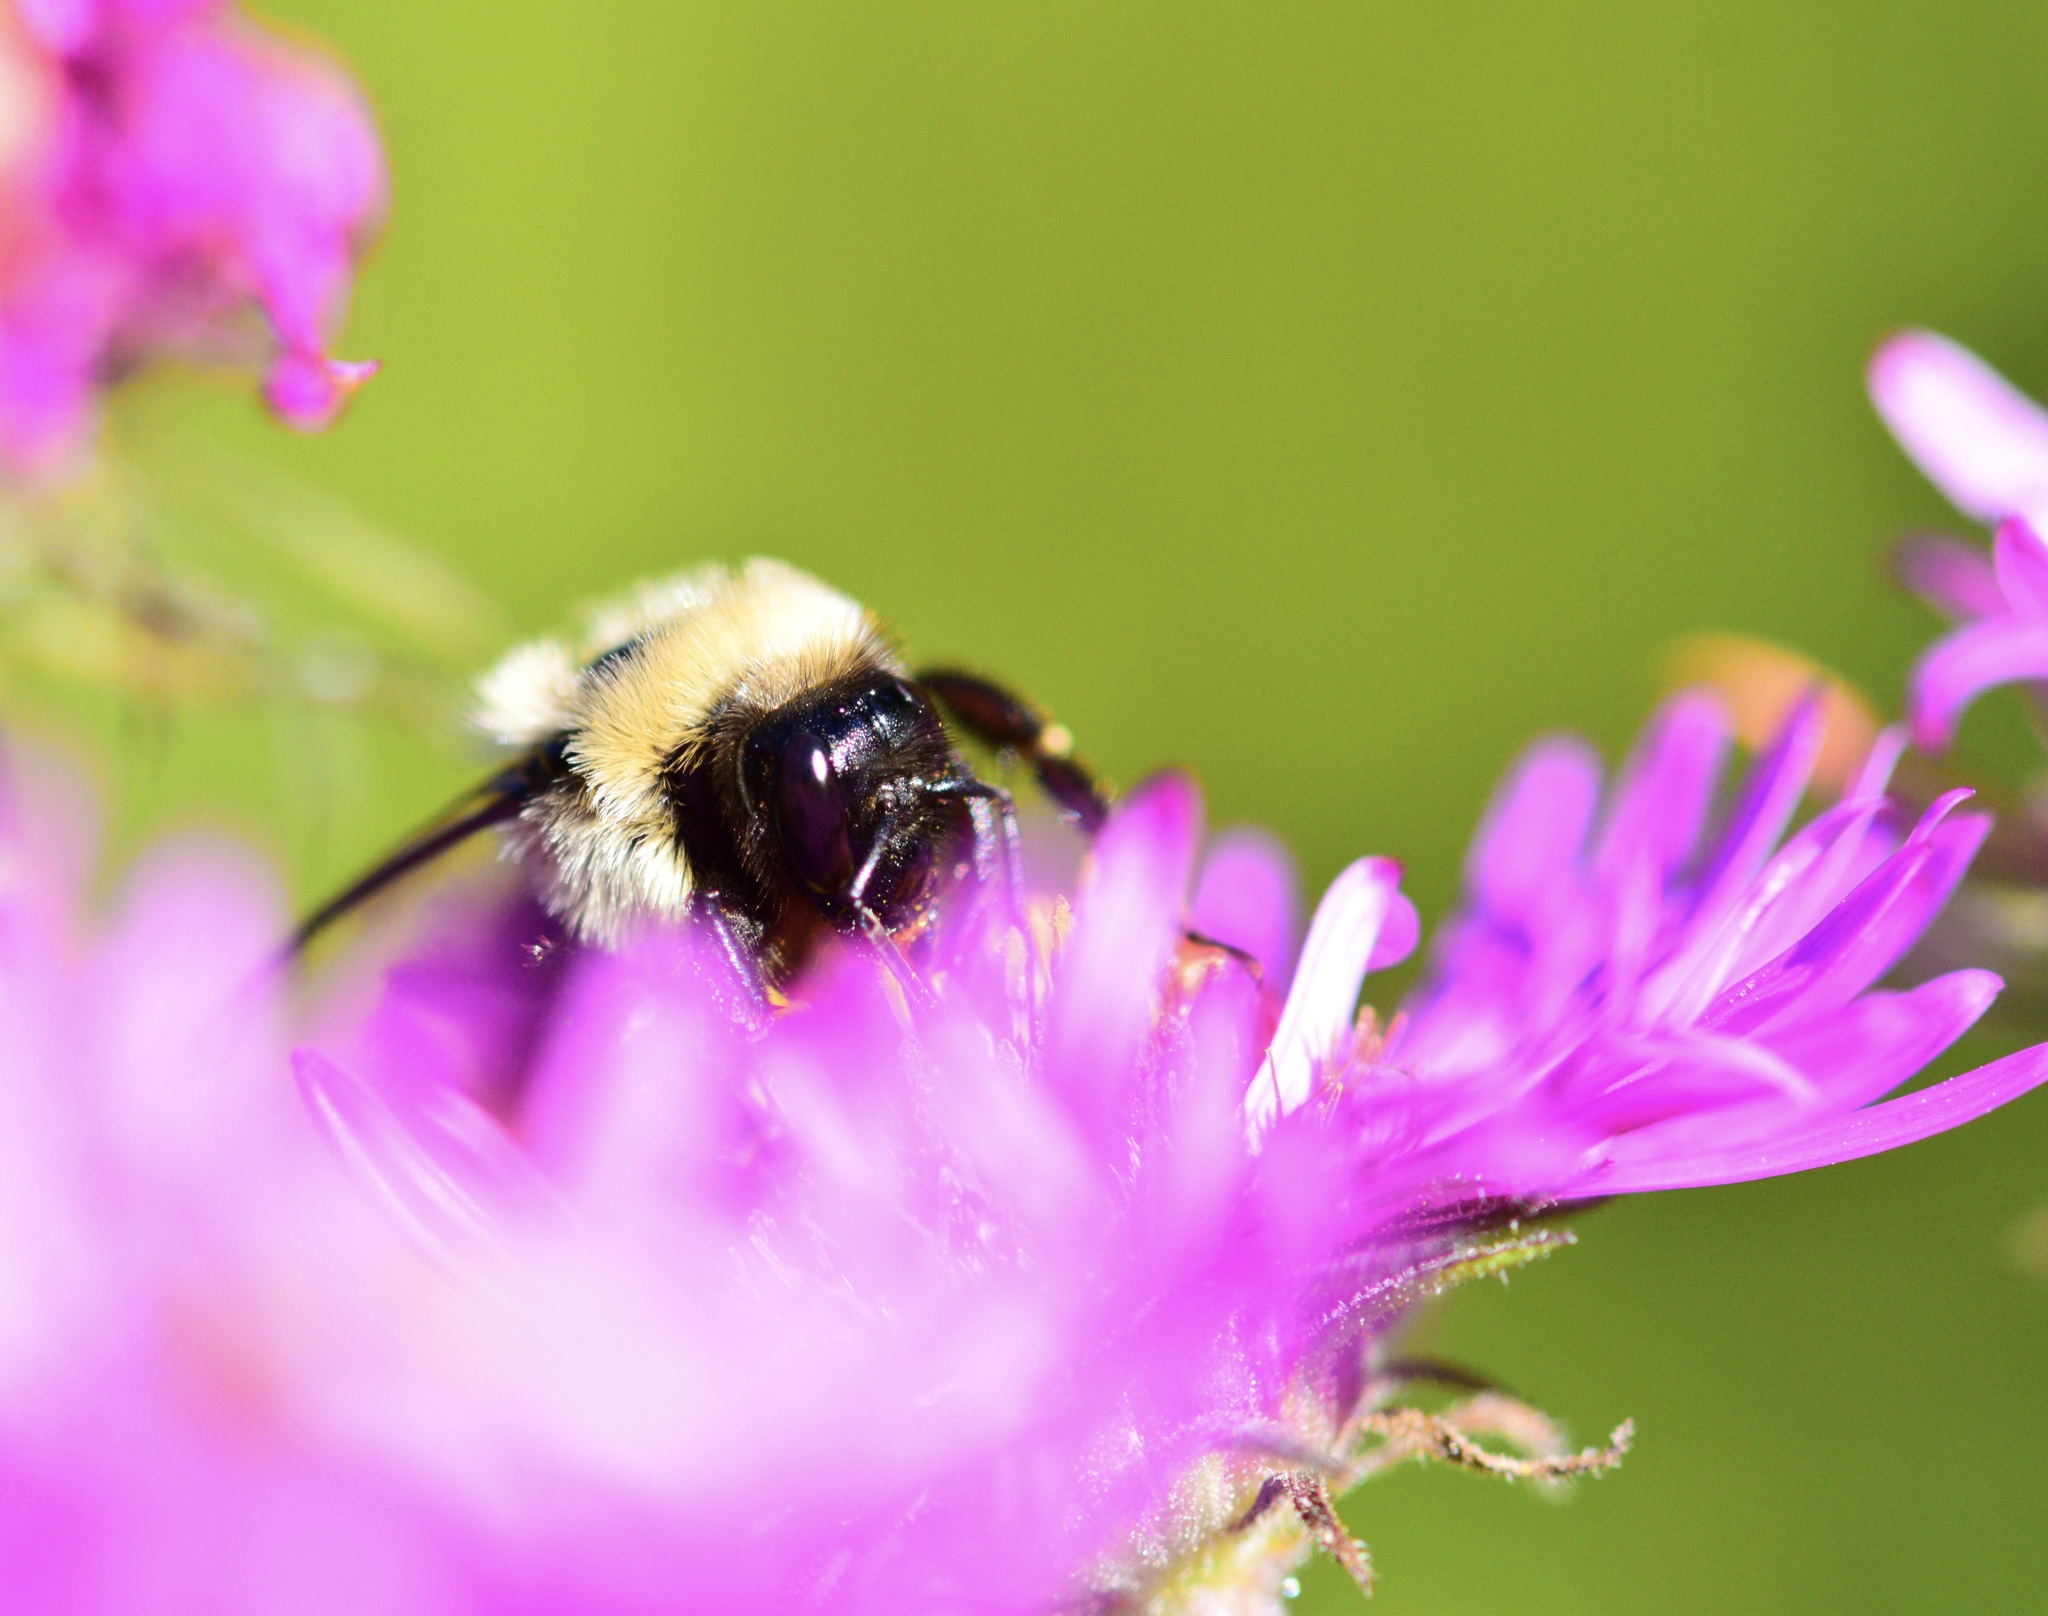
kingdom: Animalia
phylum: Arthropoda
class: Insecta
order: Hymenoptera
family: Apidae
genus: Bombus
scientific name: Bombus impatiens
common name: Common eastern bumble bee
